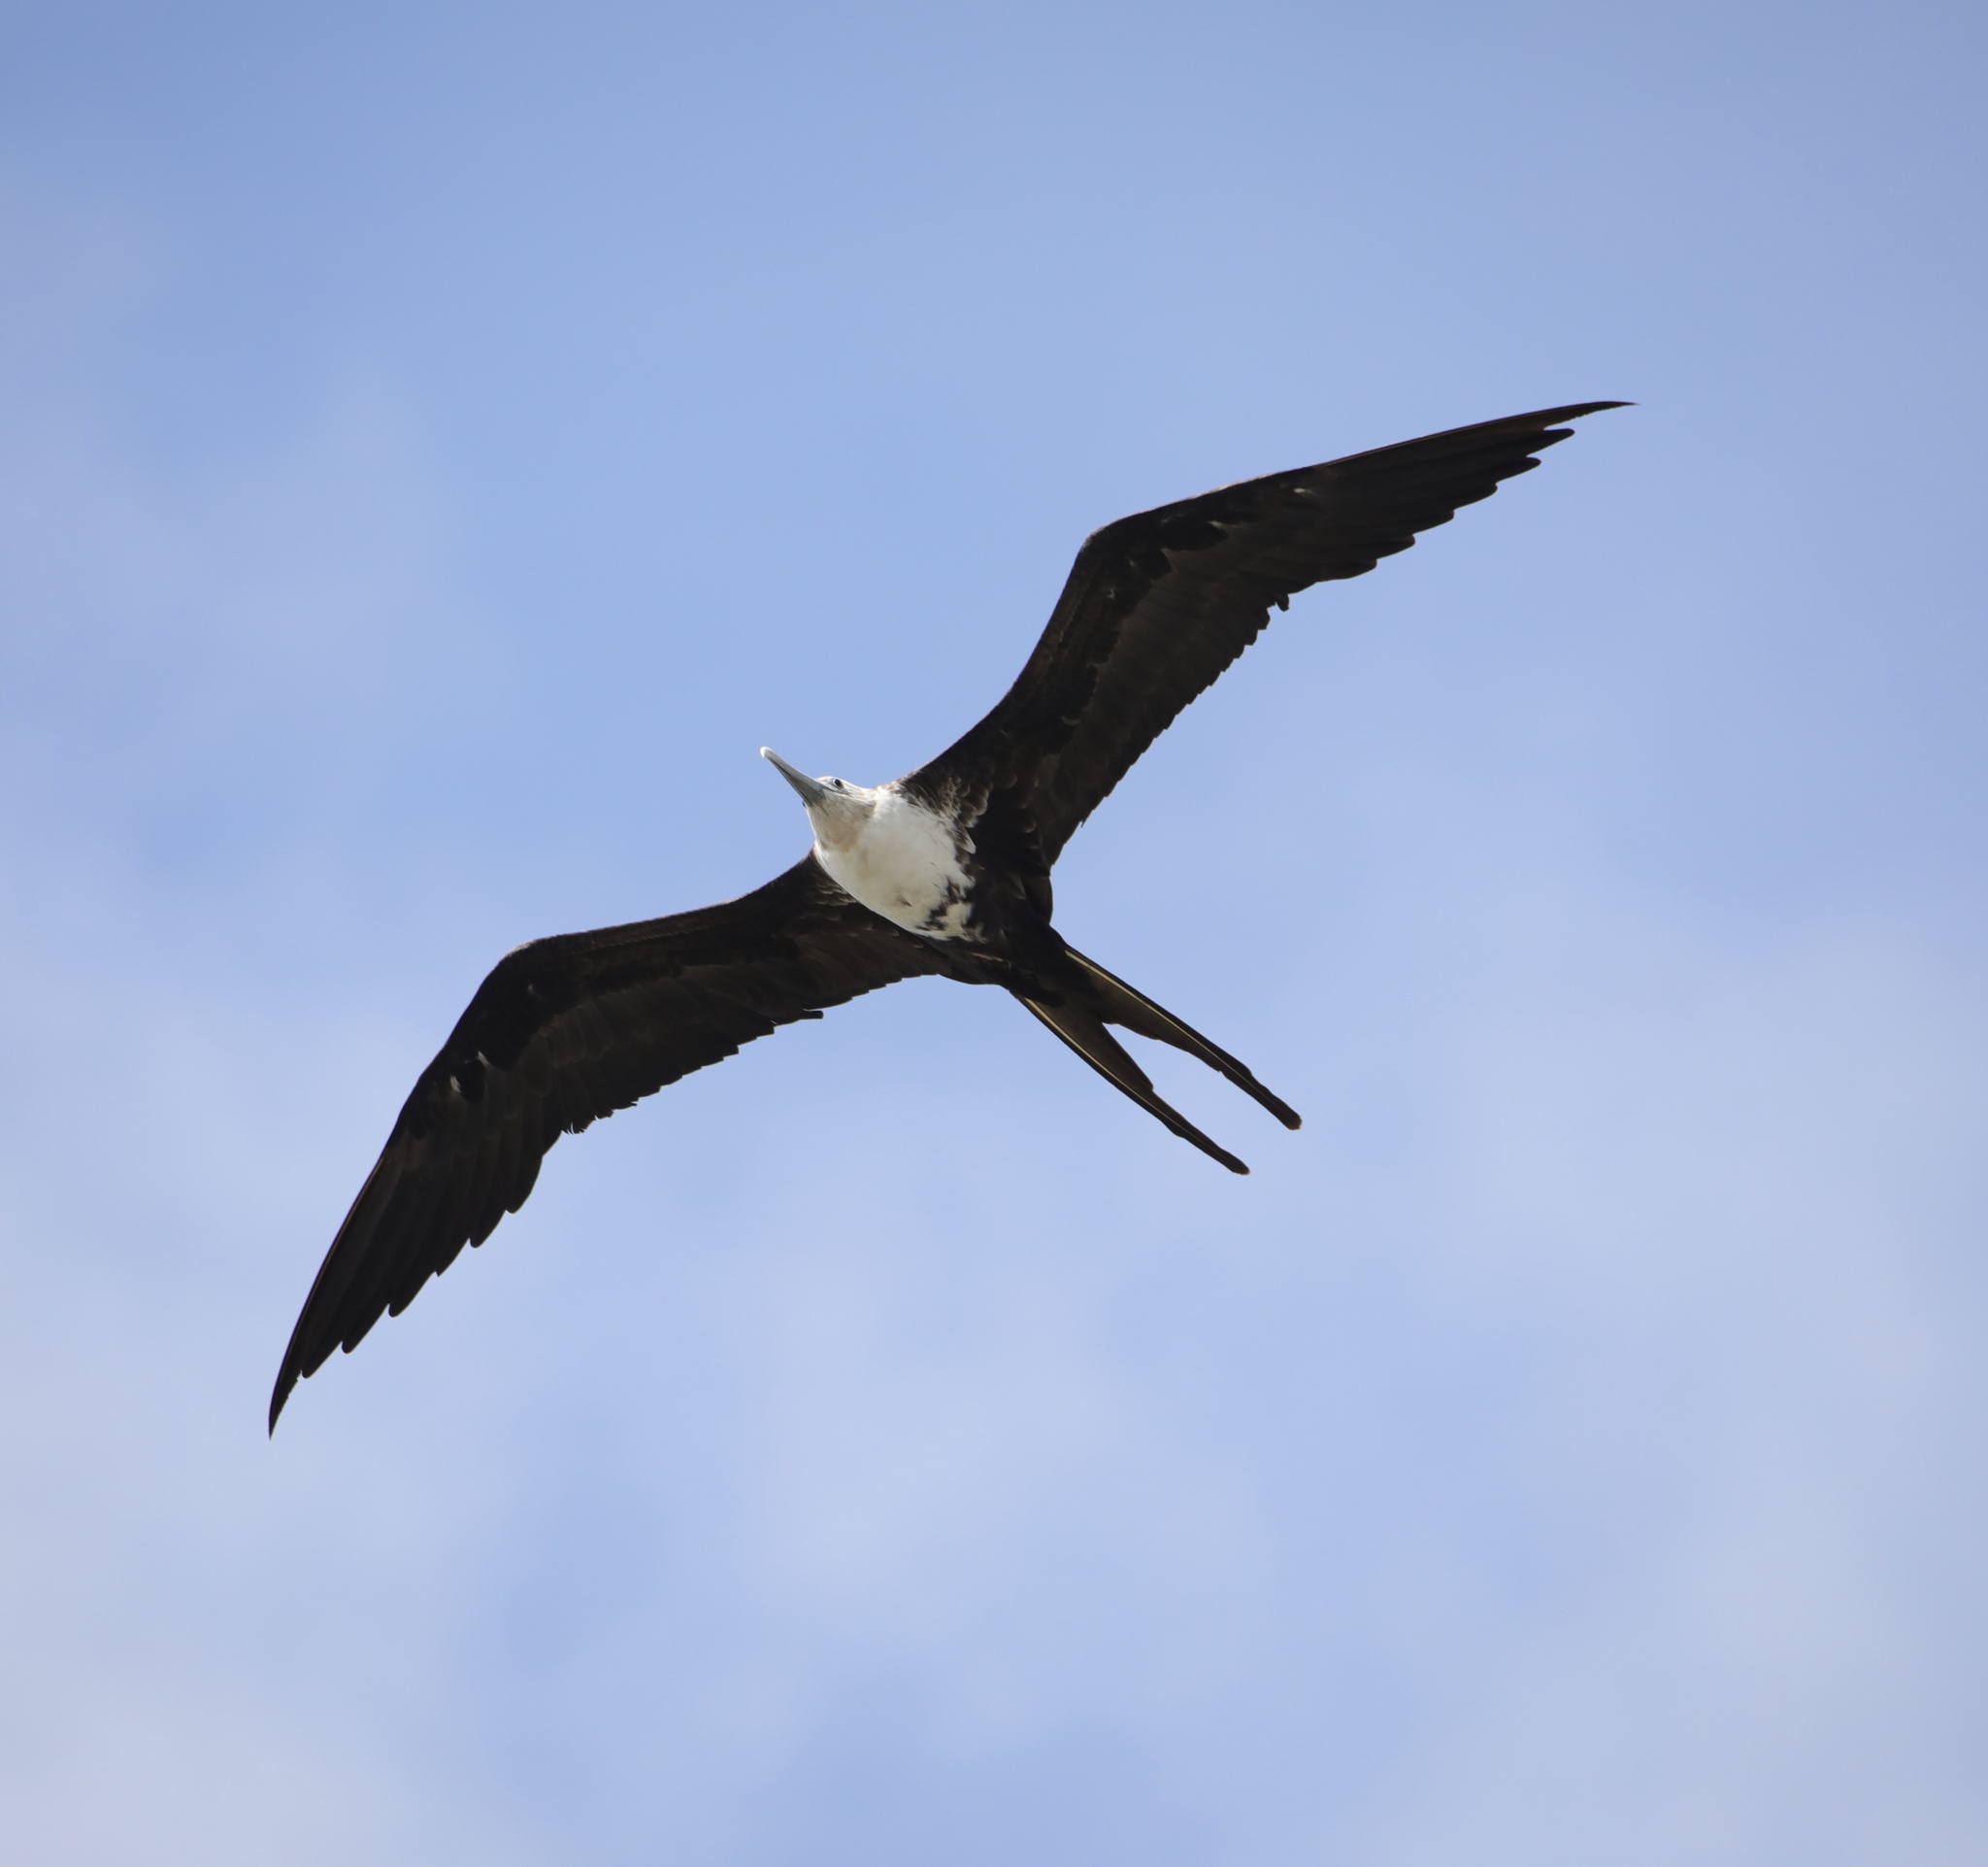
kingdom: Animalia
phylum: Chordata
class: Aves
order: Suliformes
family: Fregatidae
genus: Fregata
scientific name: Fregata magnificens
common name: Magnificent frigatebird
